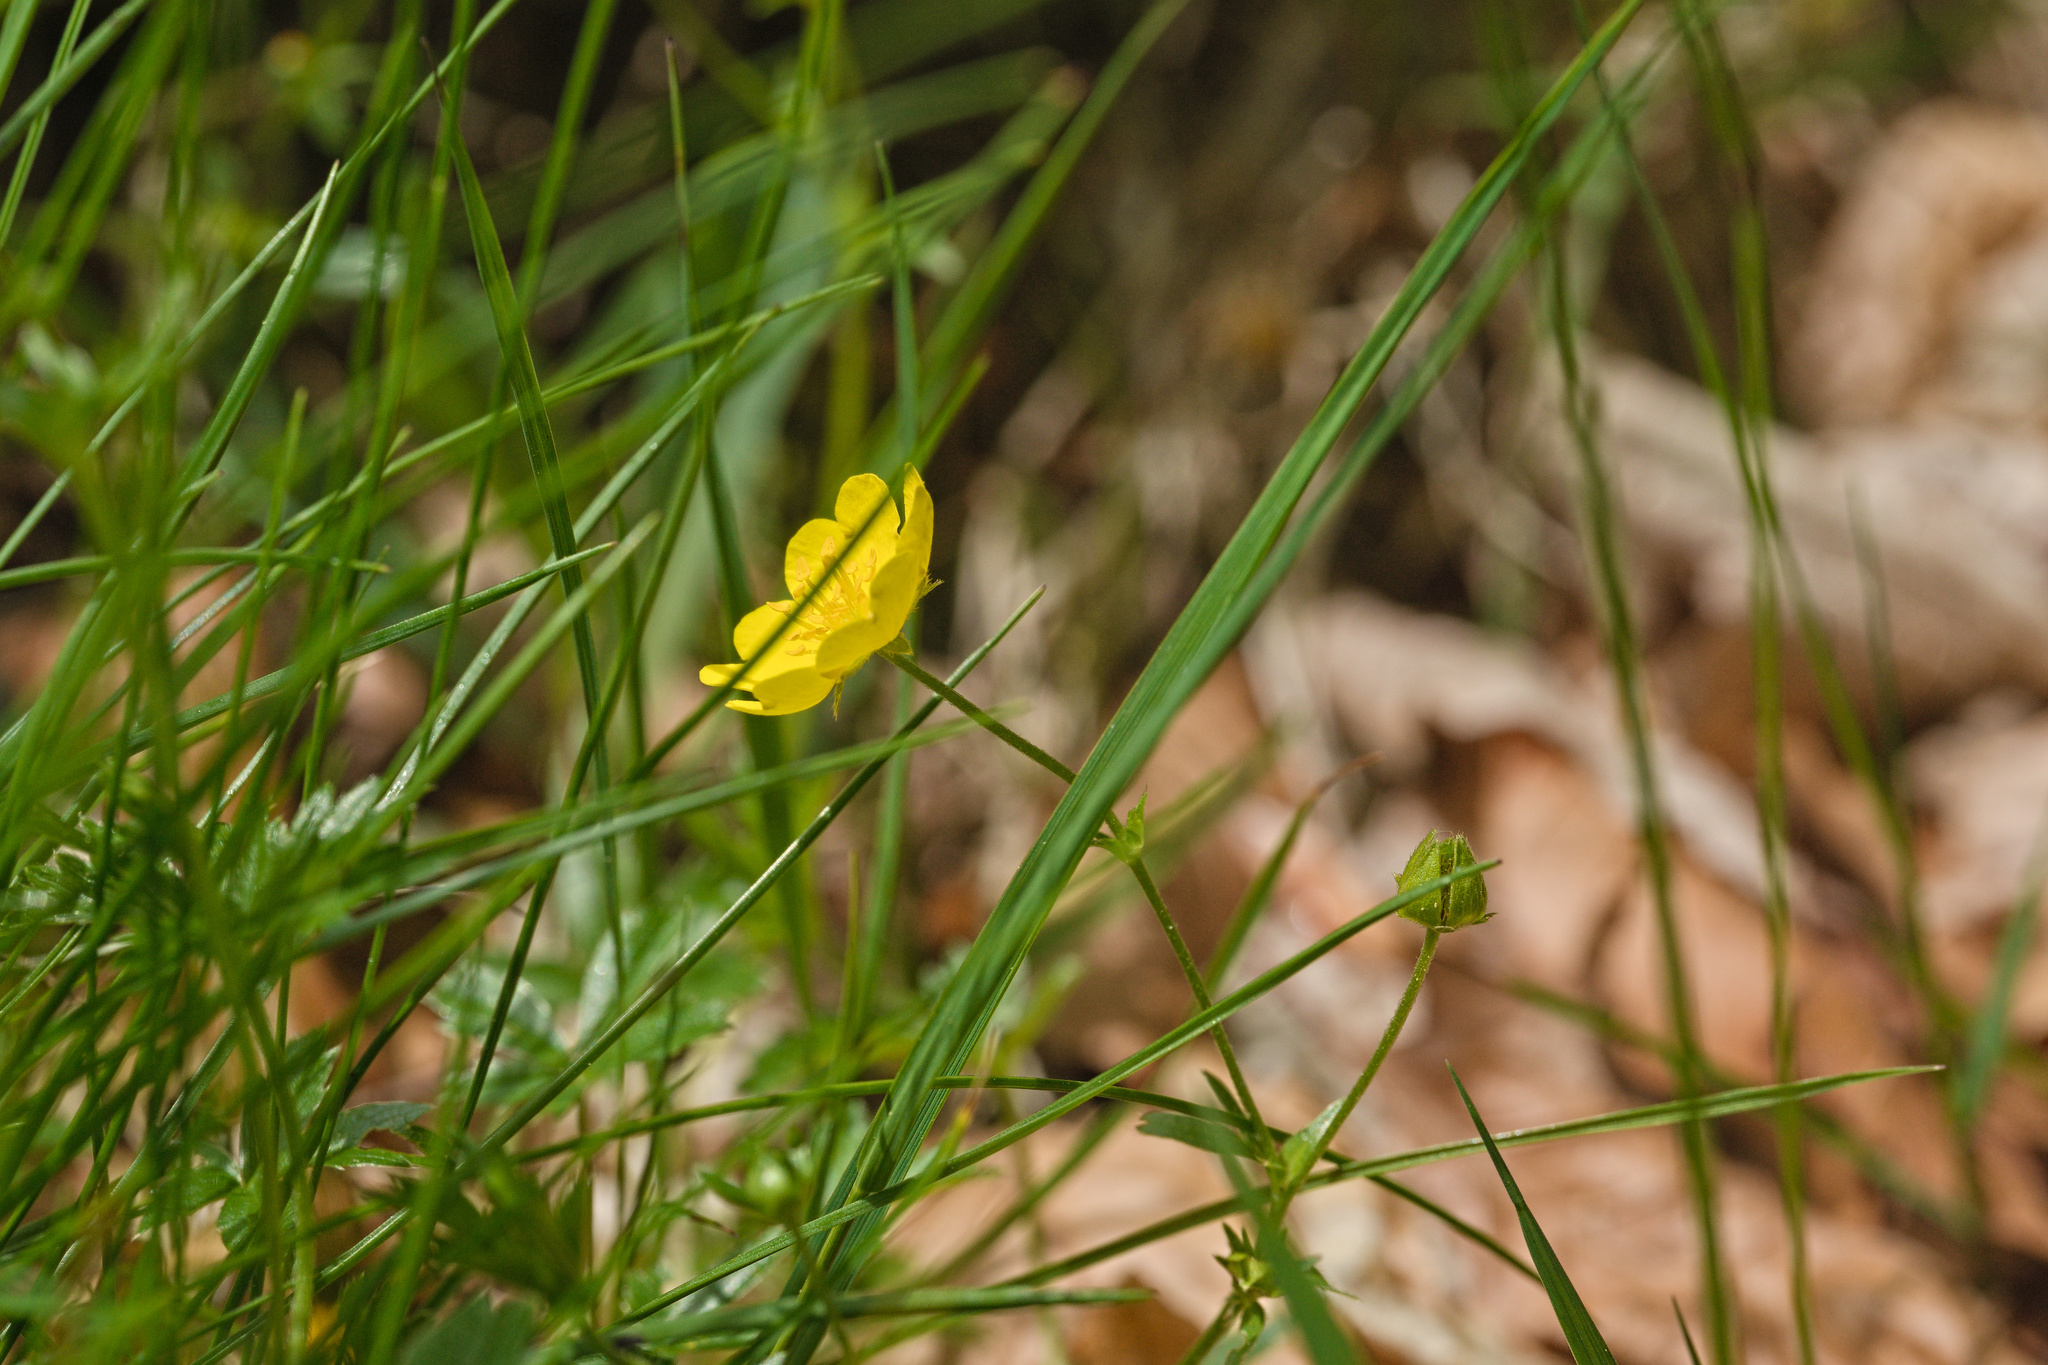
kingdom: Plantae
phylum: Tracheophyta
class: Magnoliopsida
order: Rosales
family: Rosaceae
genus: Potentilla
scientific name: Potentilla aurea
